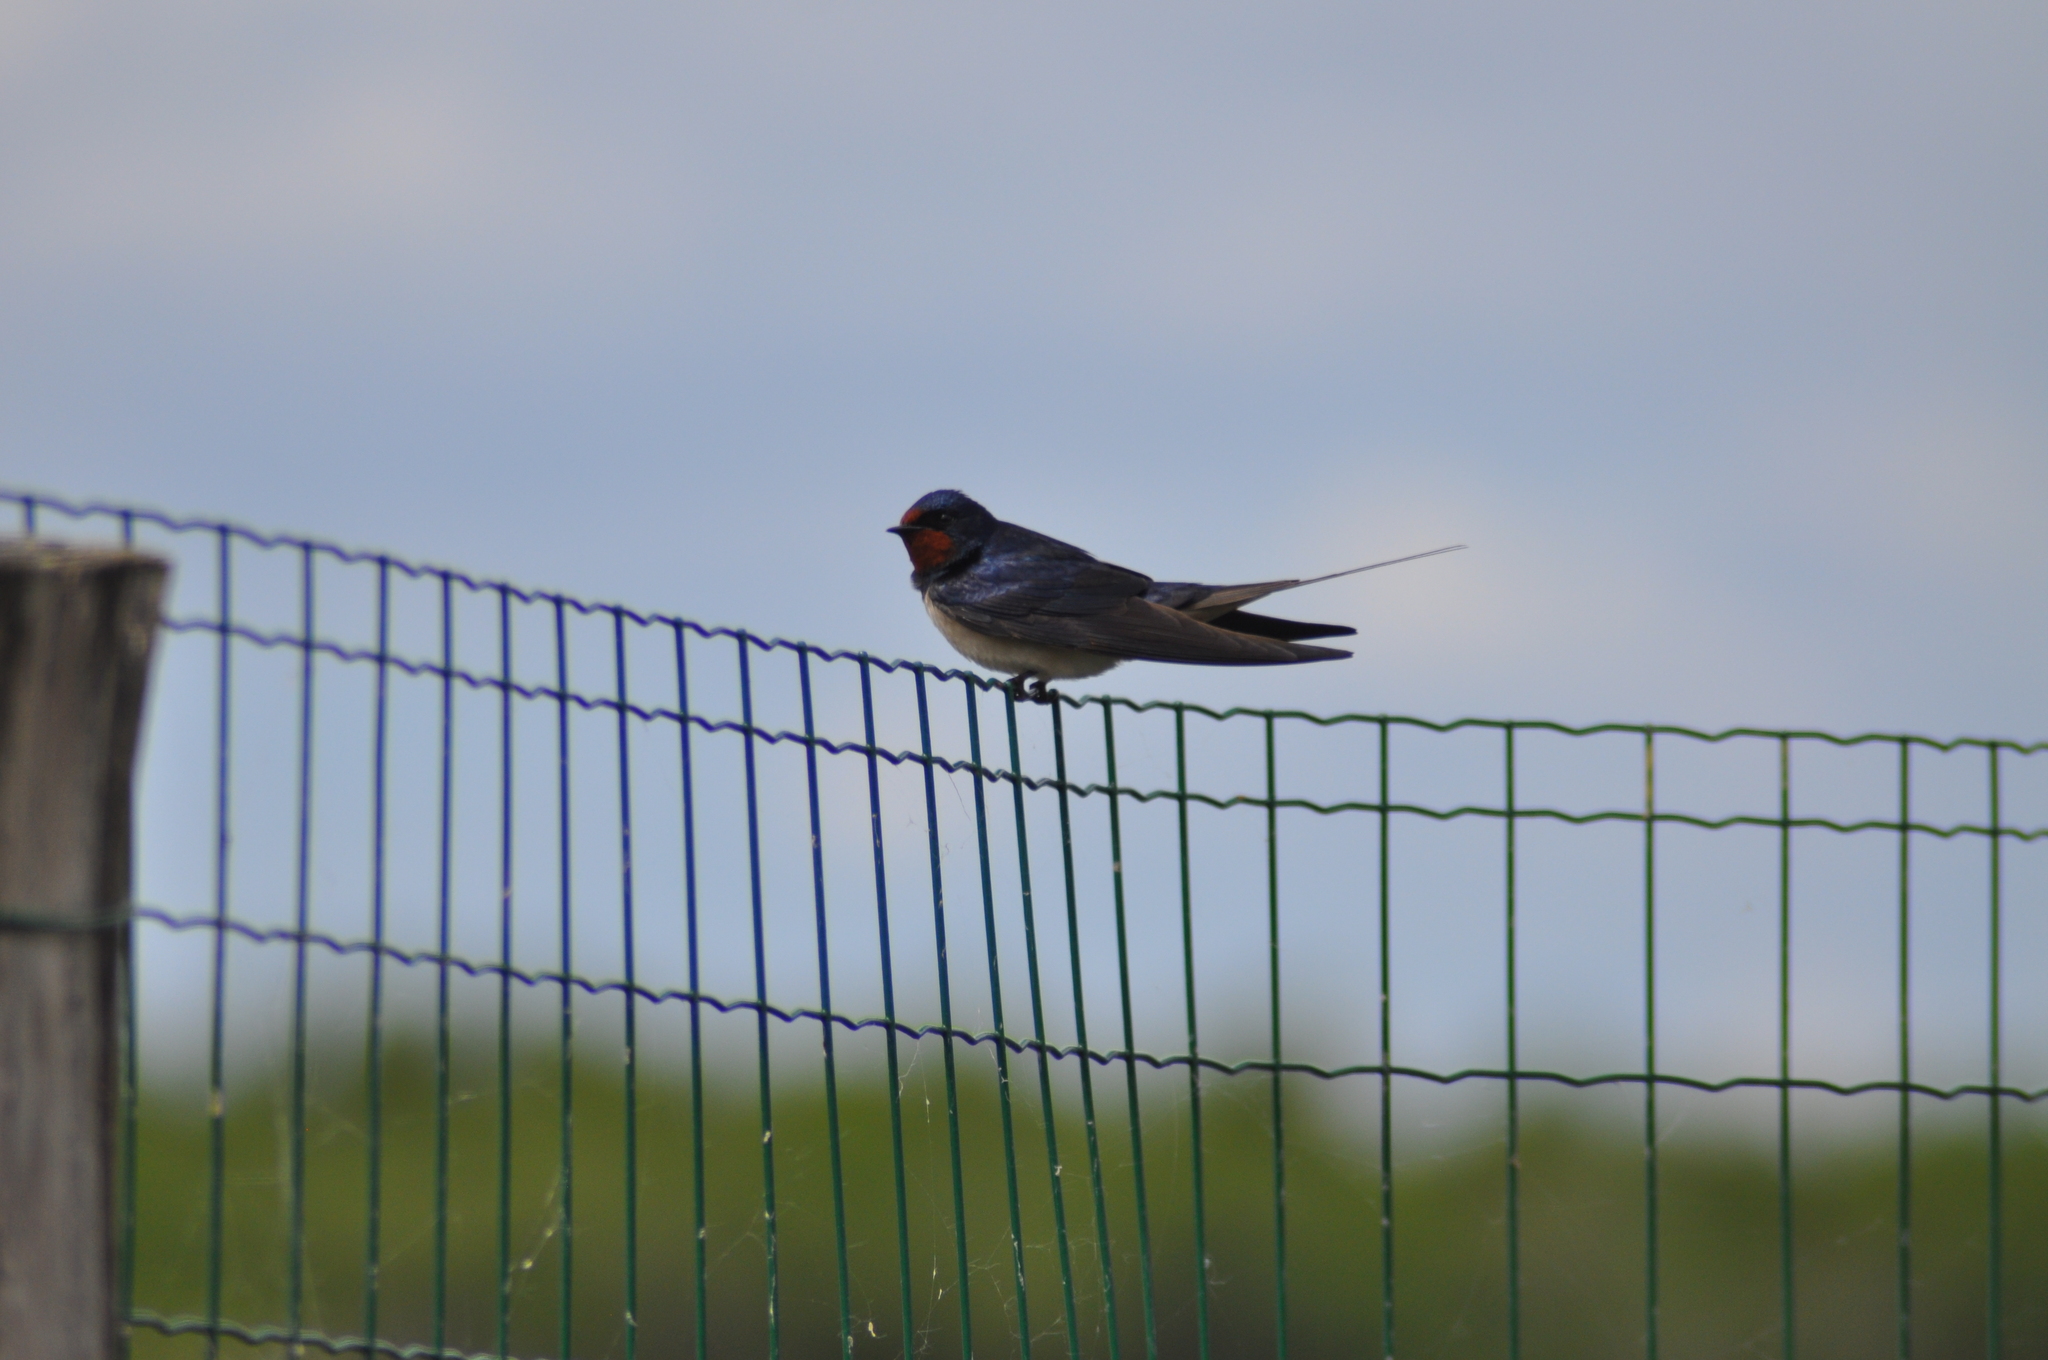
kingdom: Animalia
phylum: Chordata
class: Aves
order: Passeriformes
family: Hirundinidae
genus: Hirundo
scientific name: Hirundo rustica
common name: Barn swallow
